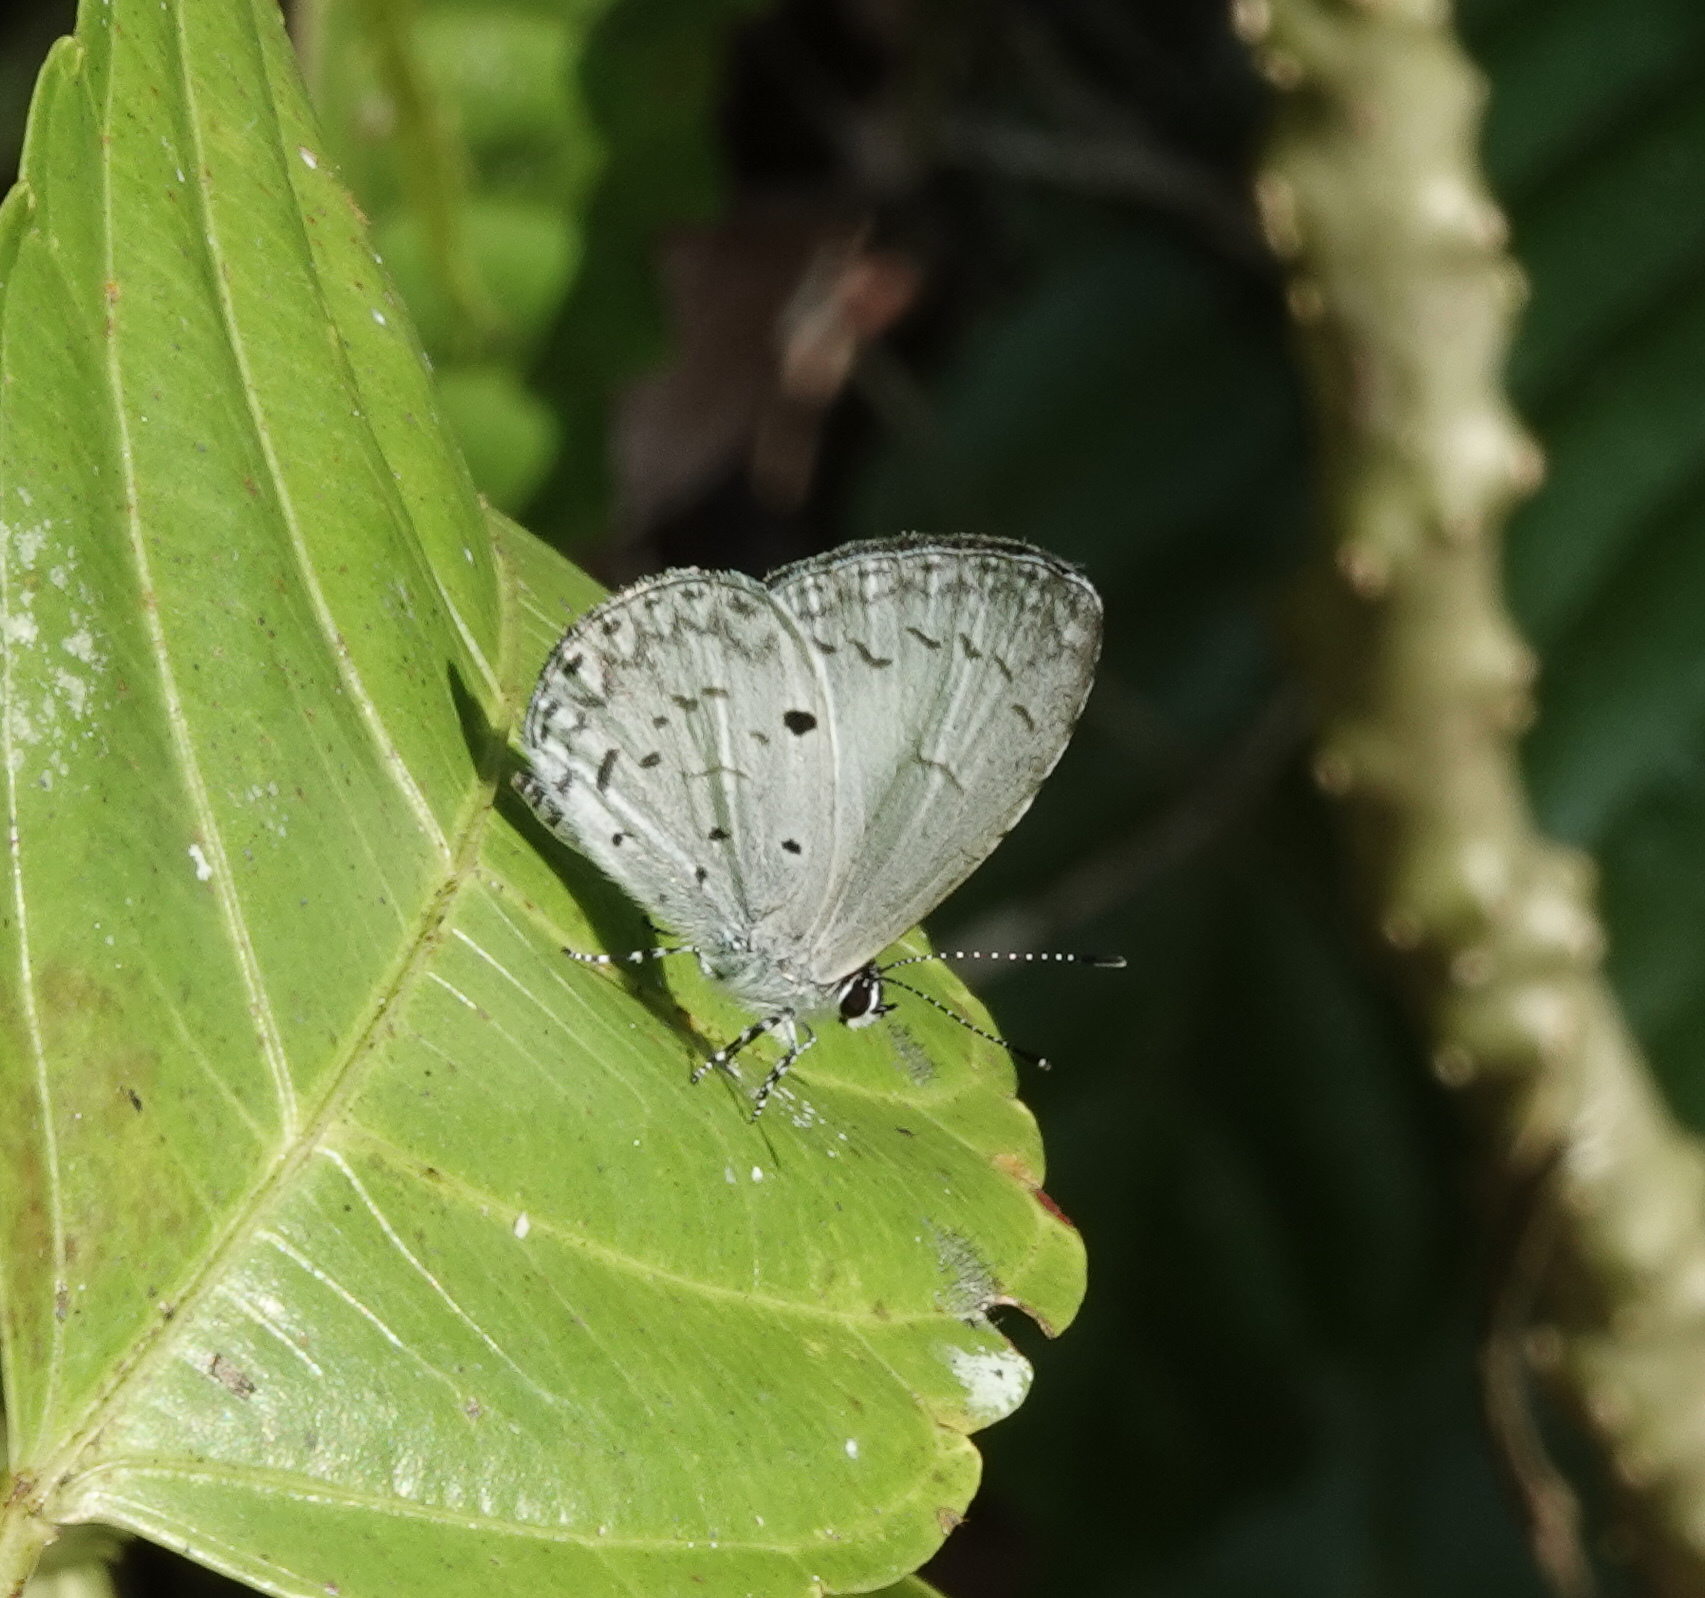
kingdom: Animalia
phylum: Arthropoda
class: Insecta
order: Lepidoptera
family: Lycaenidae
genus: Acytolepis
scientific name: Acytolepis puspa
